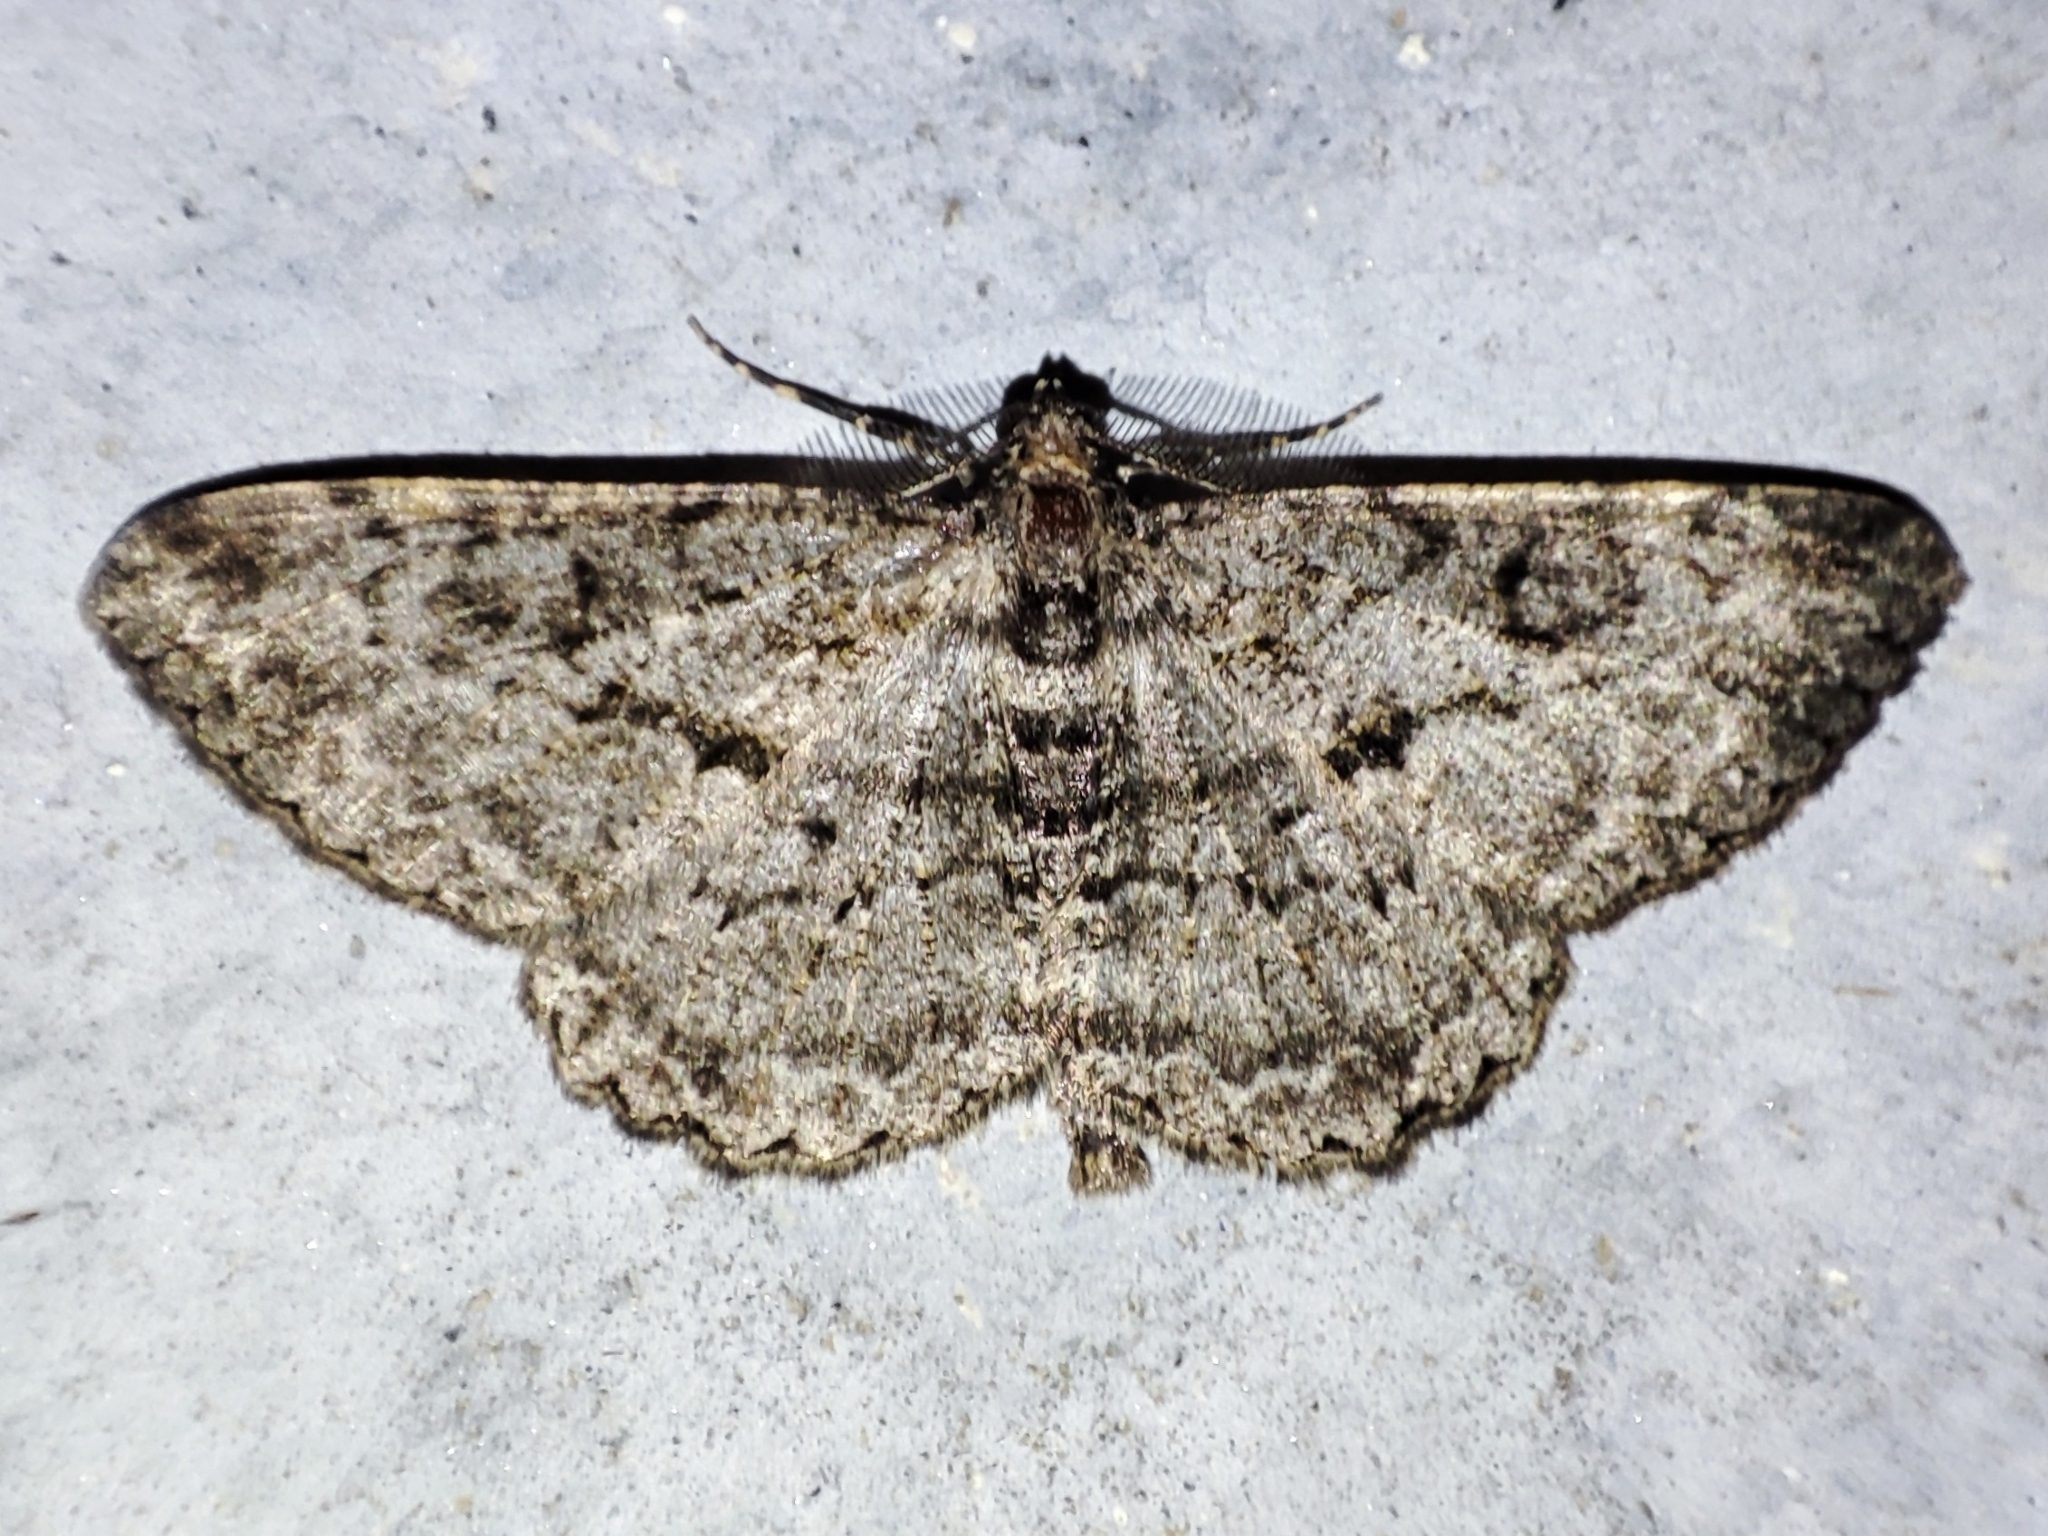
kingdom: Animalia
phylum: Arthropoda
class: Insecta
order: Lepidoptera
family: Geometridae
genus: Peribatodes
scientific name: Peribatodes rhomboidaria
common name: Willow beauty
